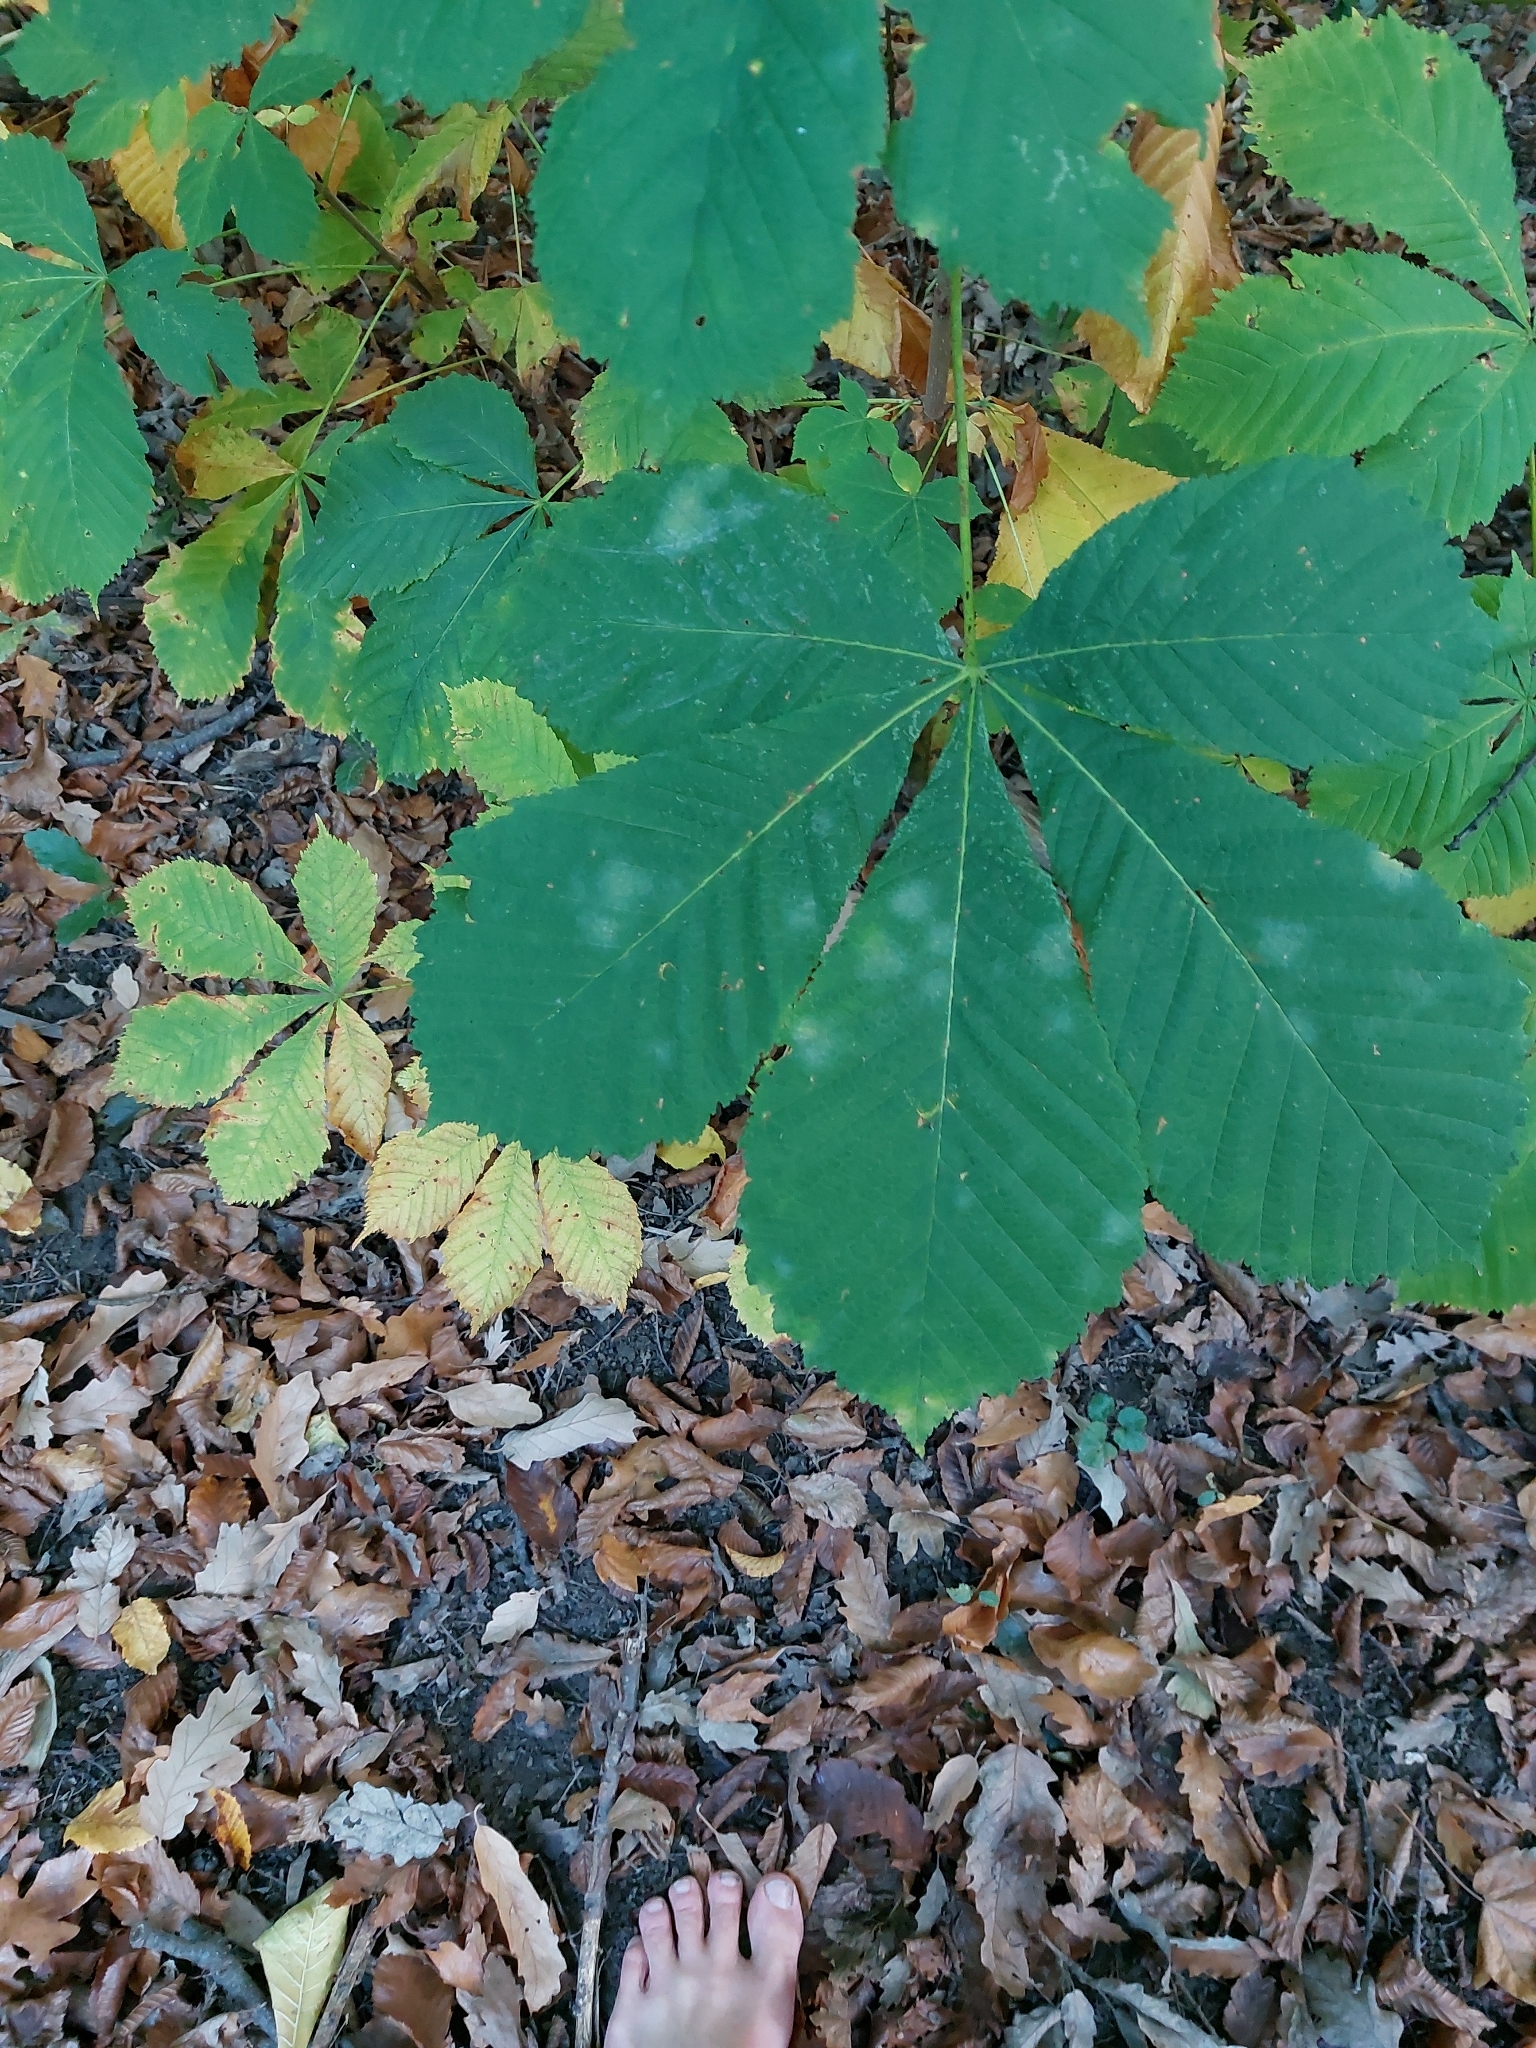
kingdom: Plantae
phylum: Tracheophyta
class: Magnoliopsida
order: Sapindales
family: Sapindaceae
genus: Aesculus
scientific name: Aesculus hippocastanum
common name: Horse-chestnut
